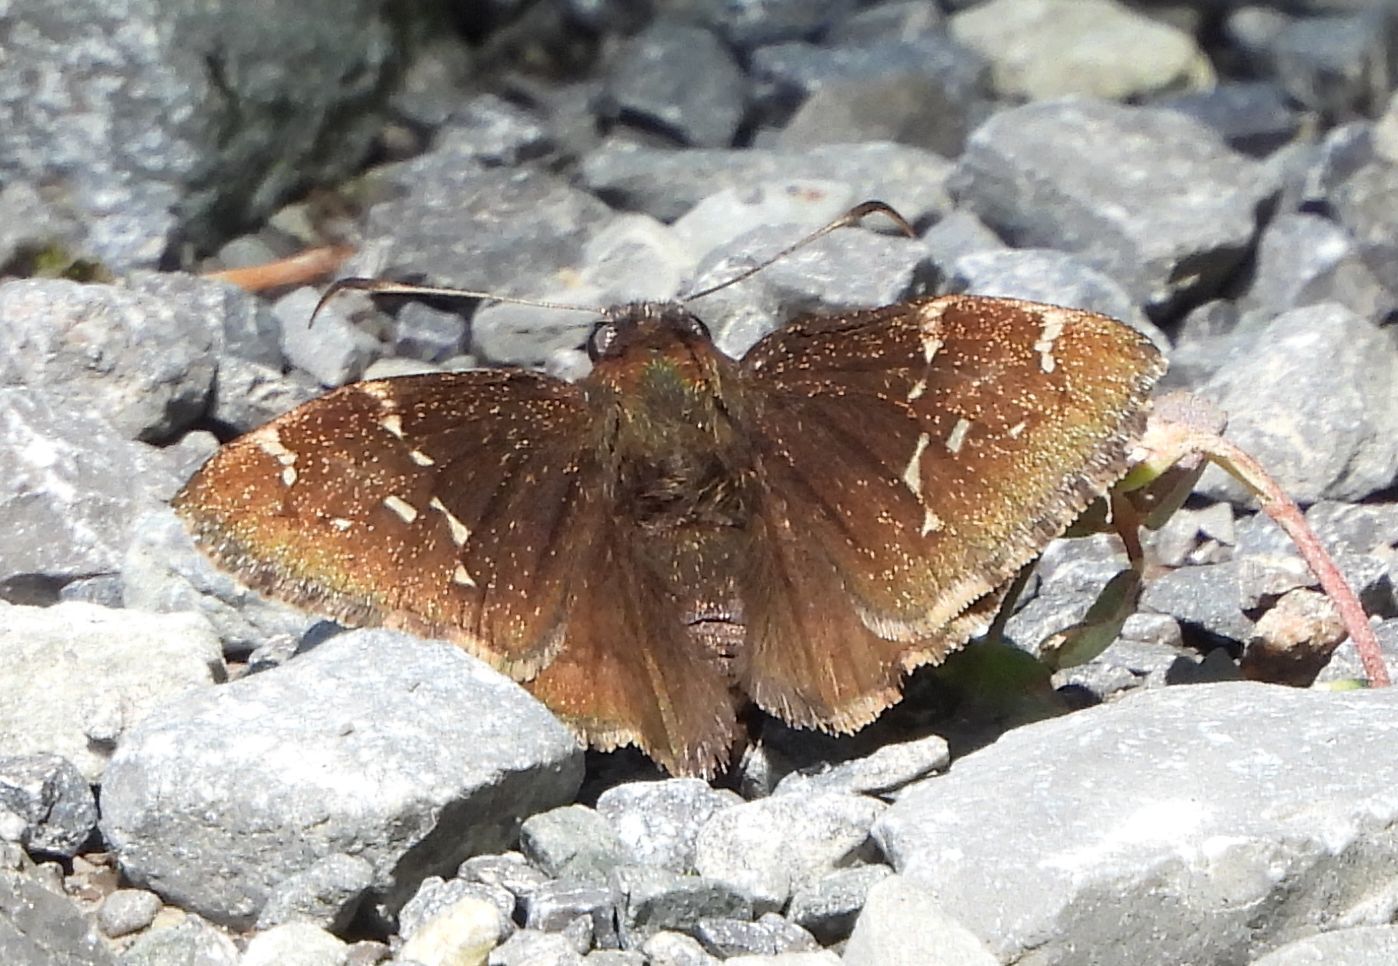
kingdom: Animalia
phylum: Arthropoda
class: Insecta
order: Lepidoptera
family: Hesperiidae
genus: Thorybes
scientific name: Thorybes pylades
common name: Northern cloudywing
